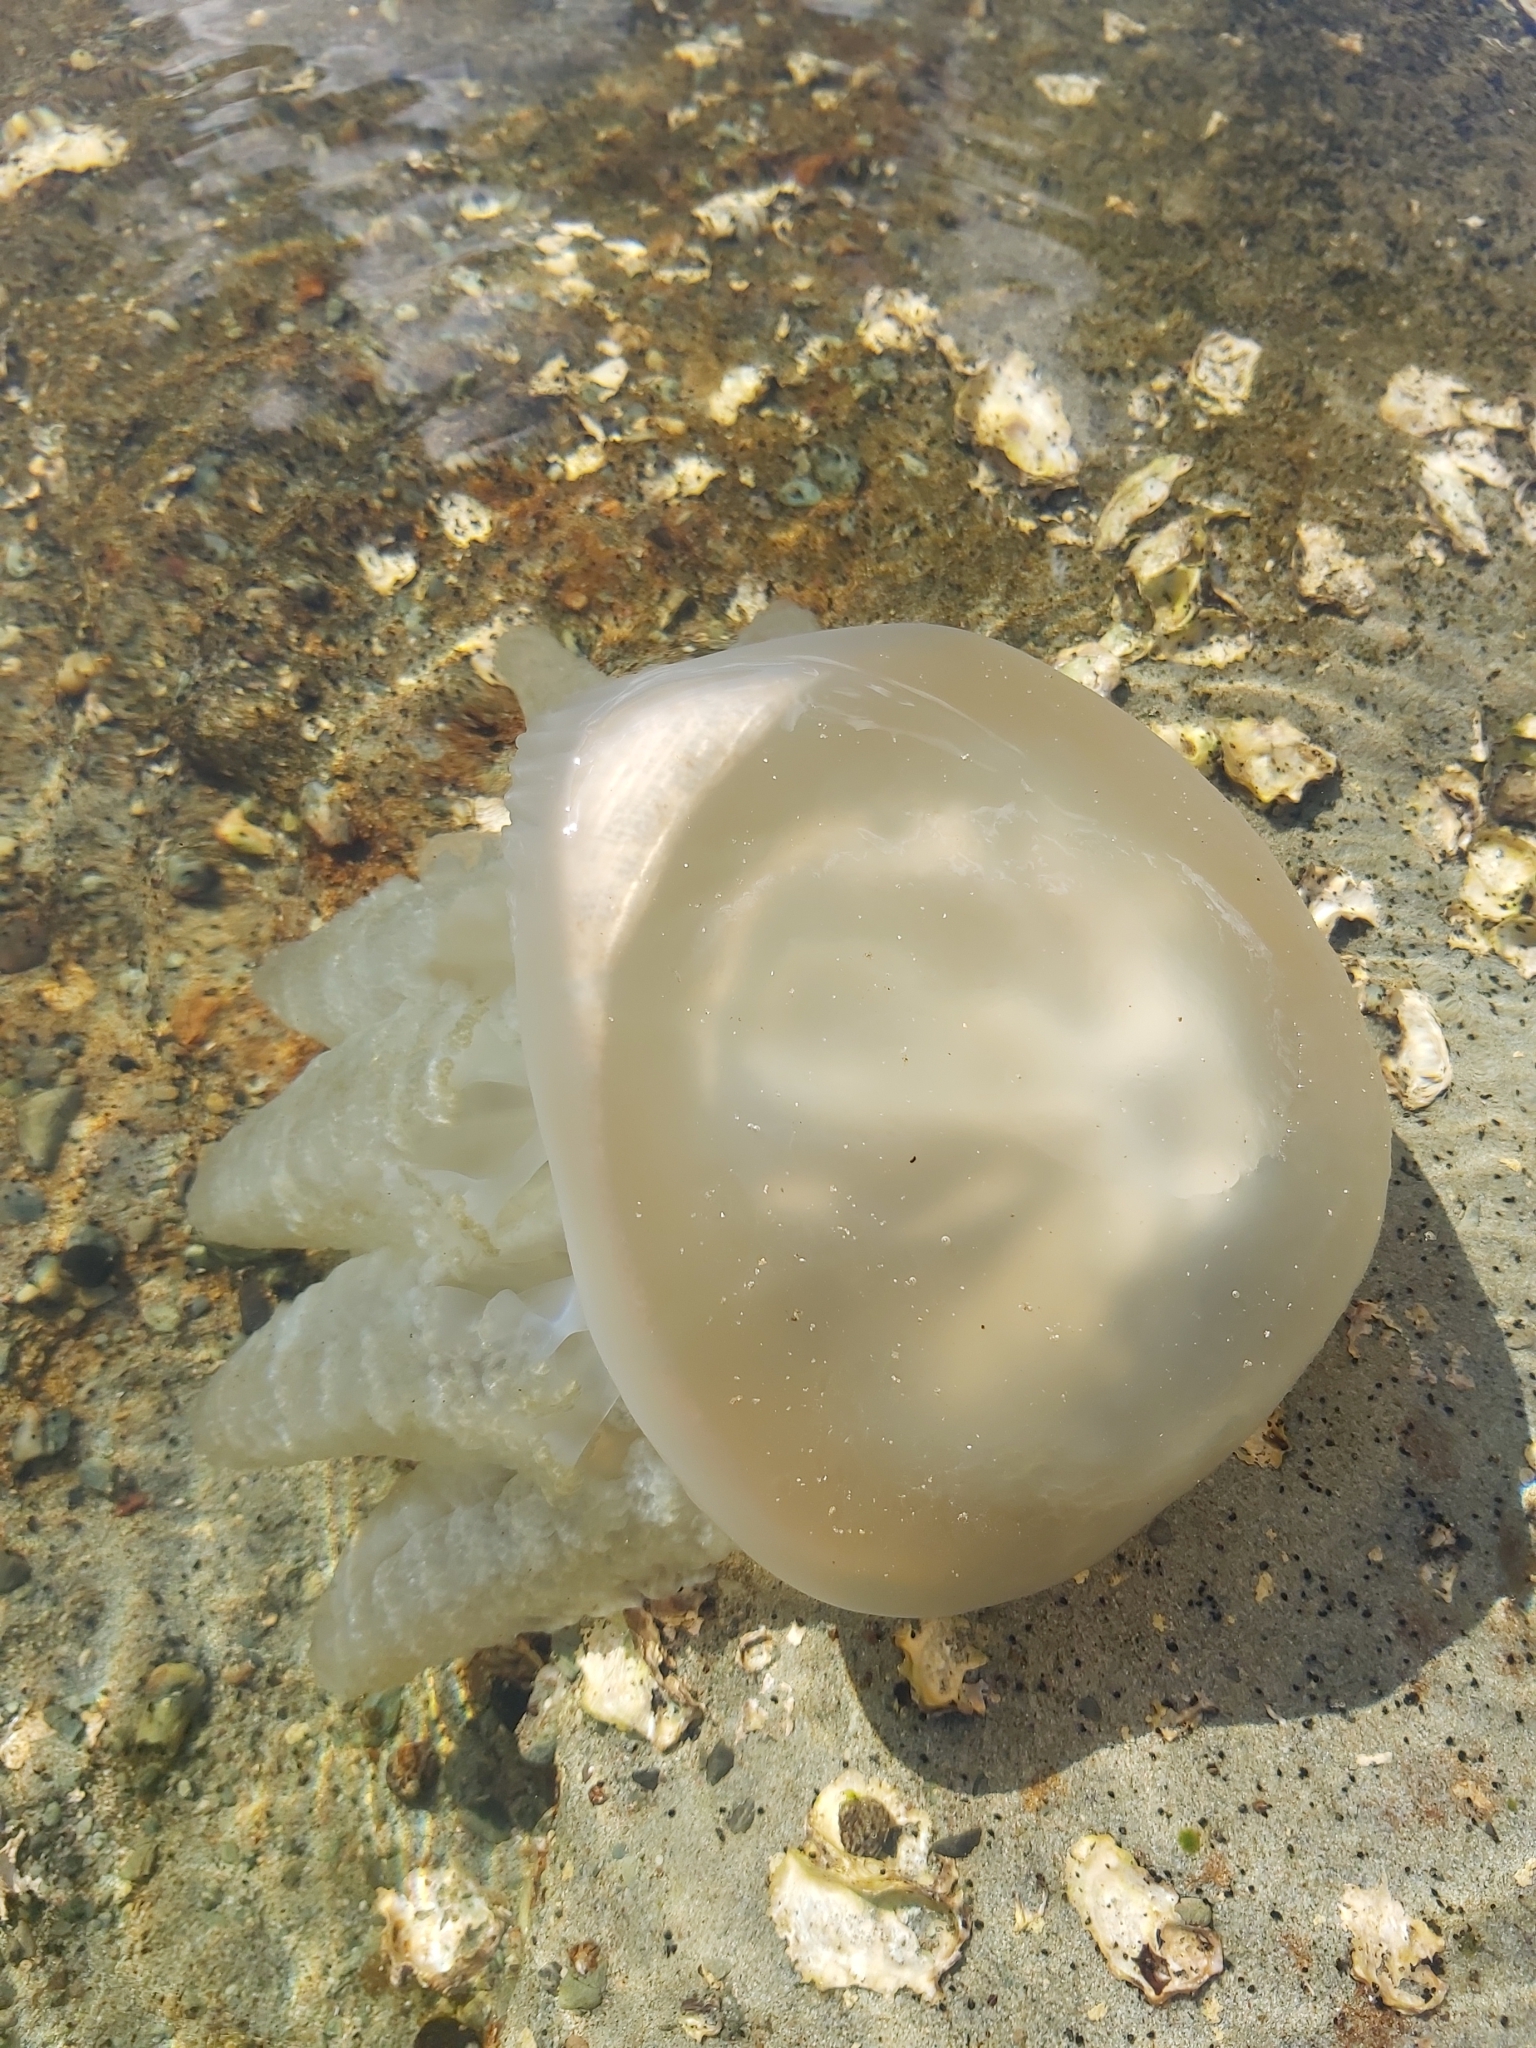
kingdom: Animalia
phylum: Cnidaria
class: Scyphozoa
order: Rhizostomeae
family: Catostylidae
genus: Catostylus
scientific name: Catostylus mosaicus
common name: Blue blubber
